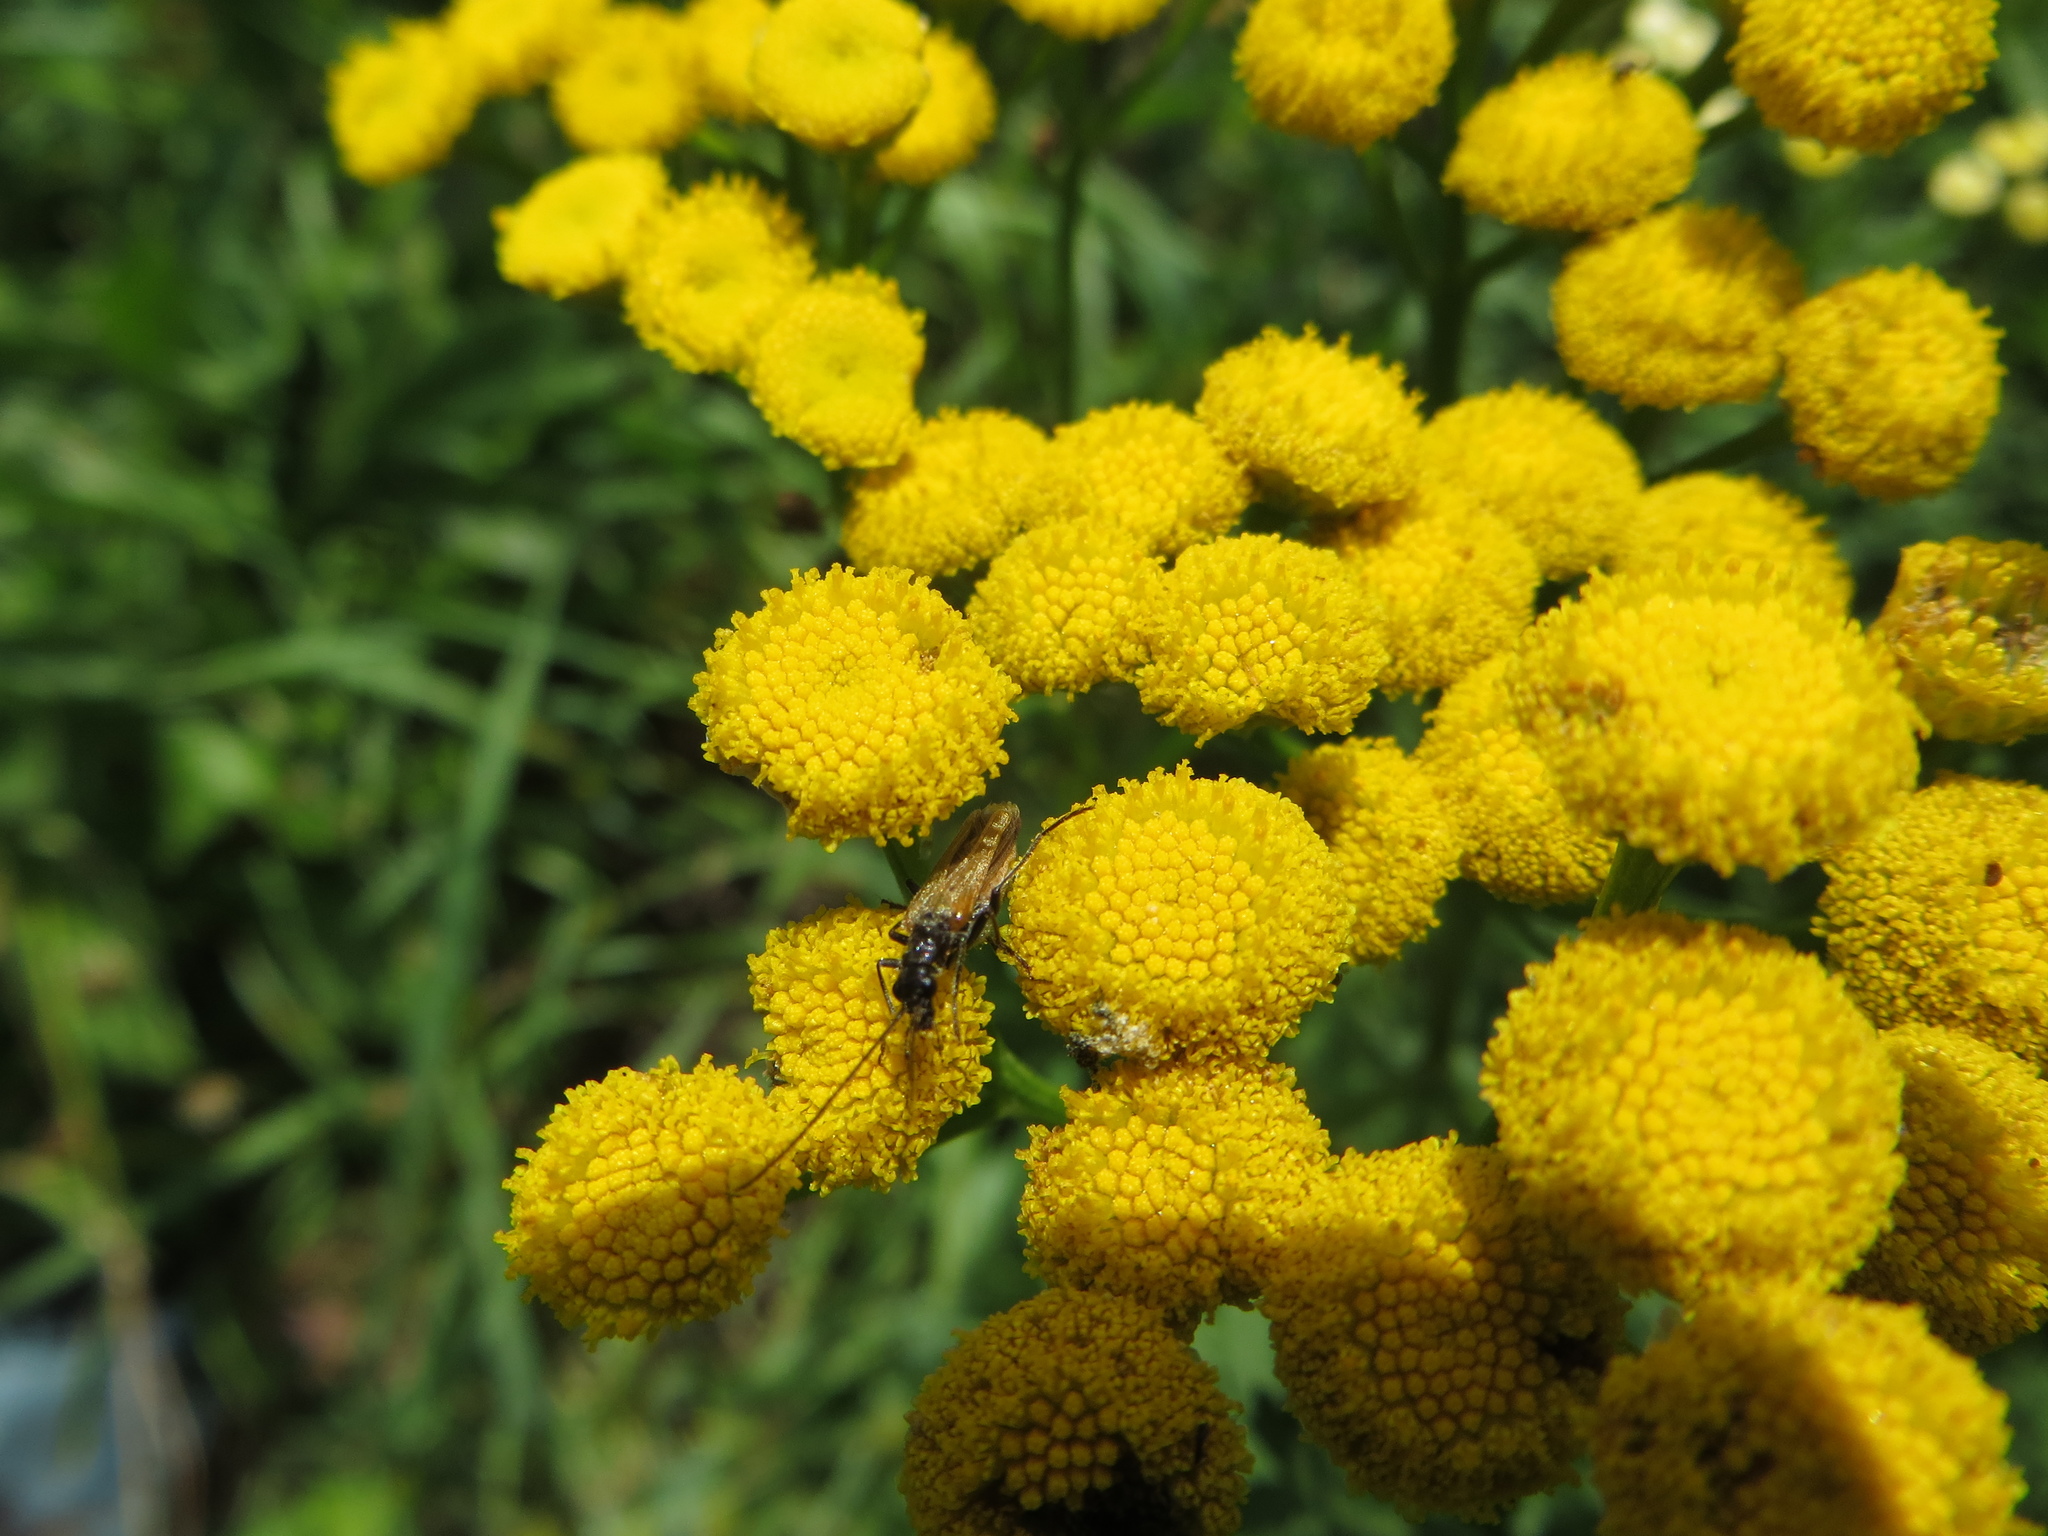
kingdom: Animalia
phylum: Arthropoda
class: Insecta
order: Coleoptera
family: Oedemeridae
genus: Oedemera
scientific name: Oedemera femorata
